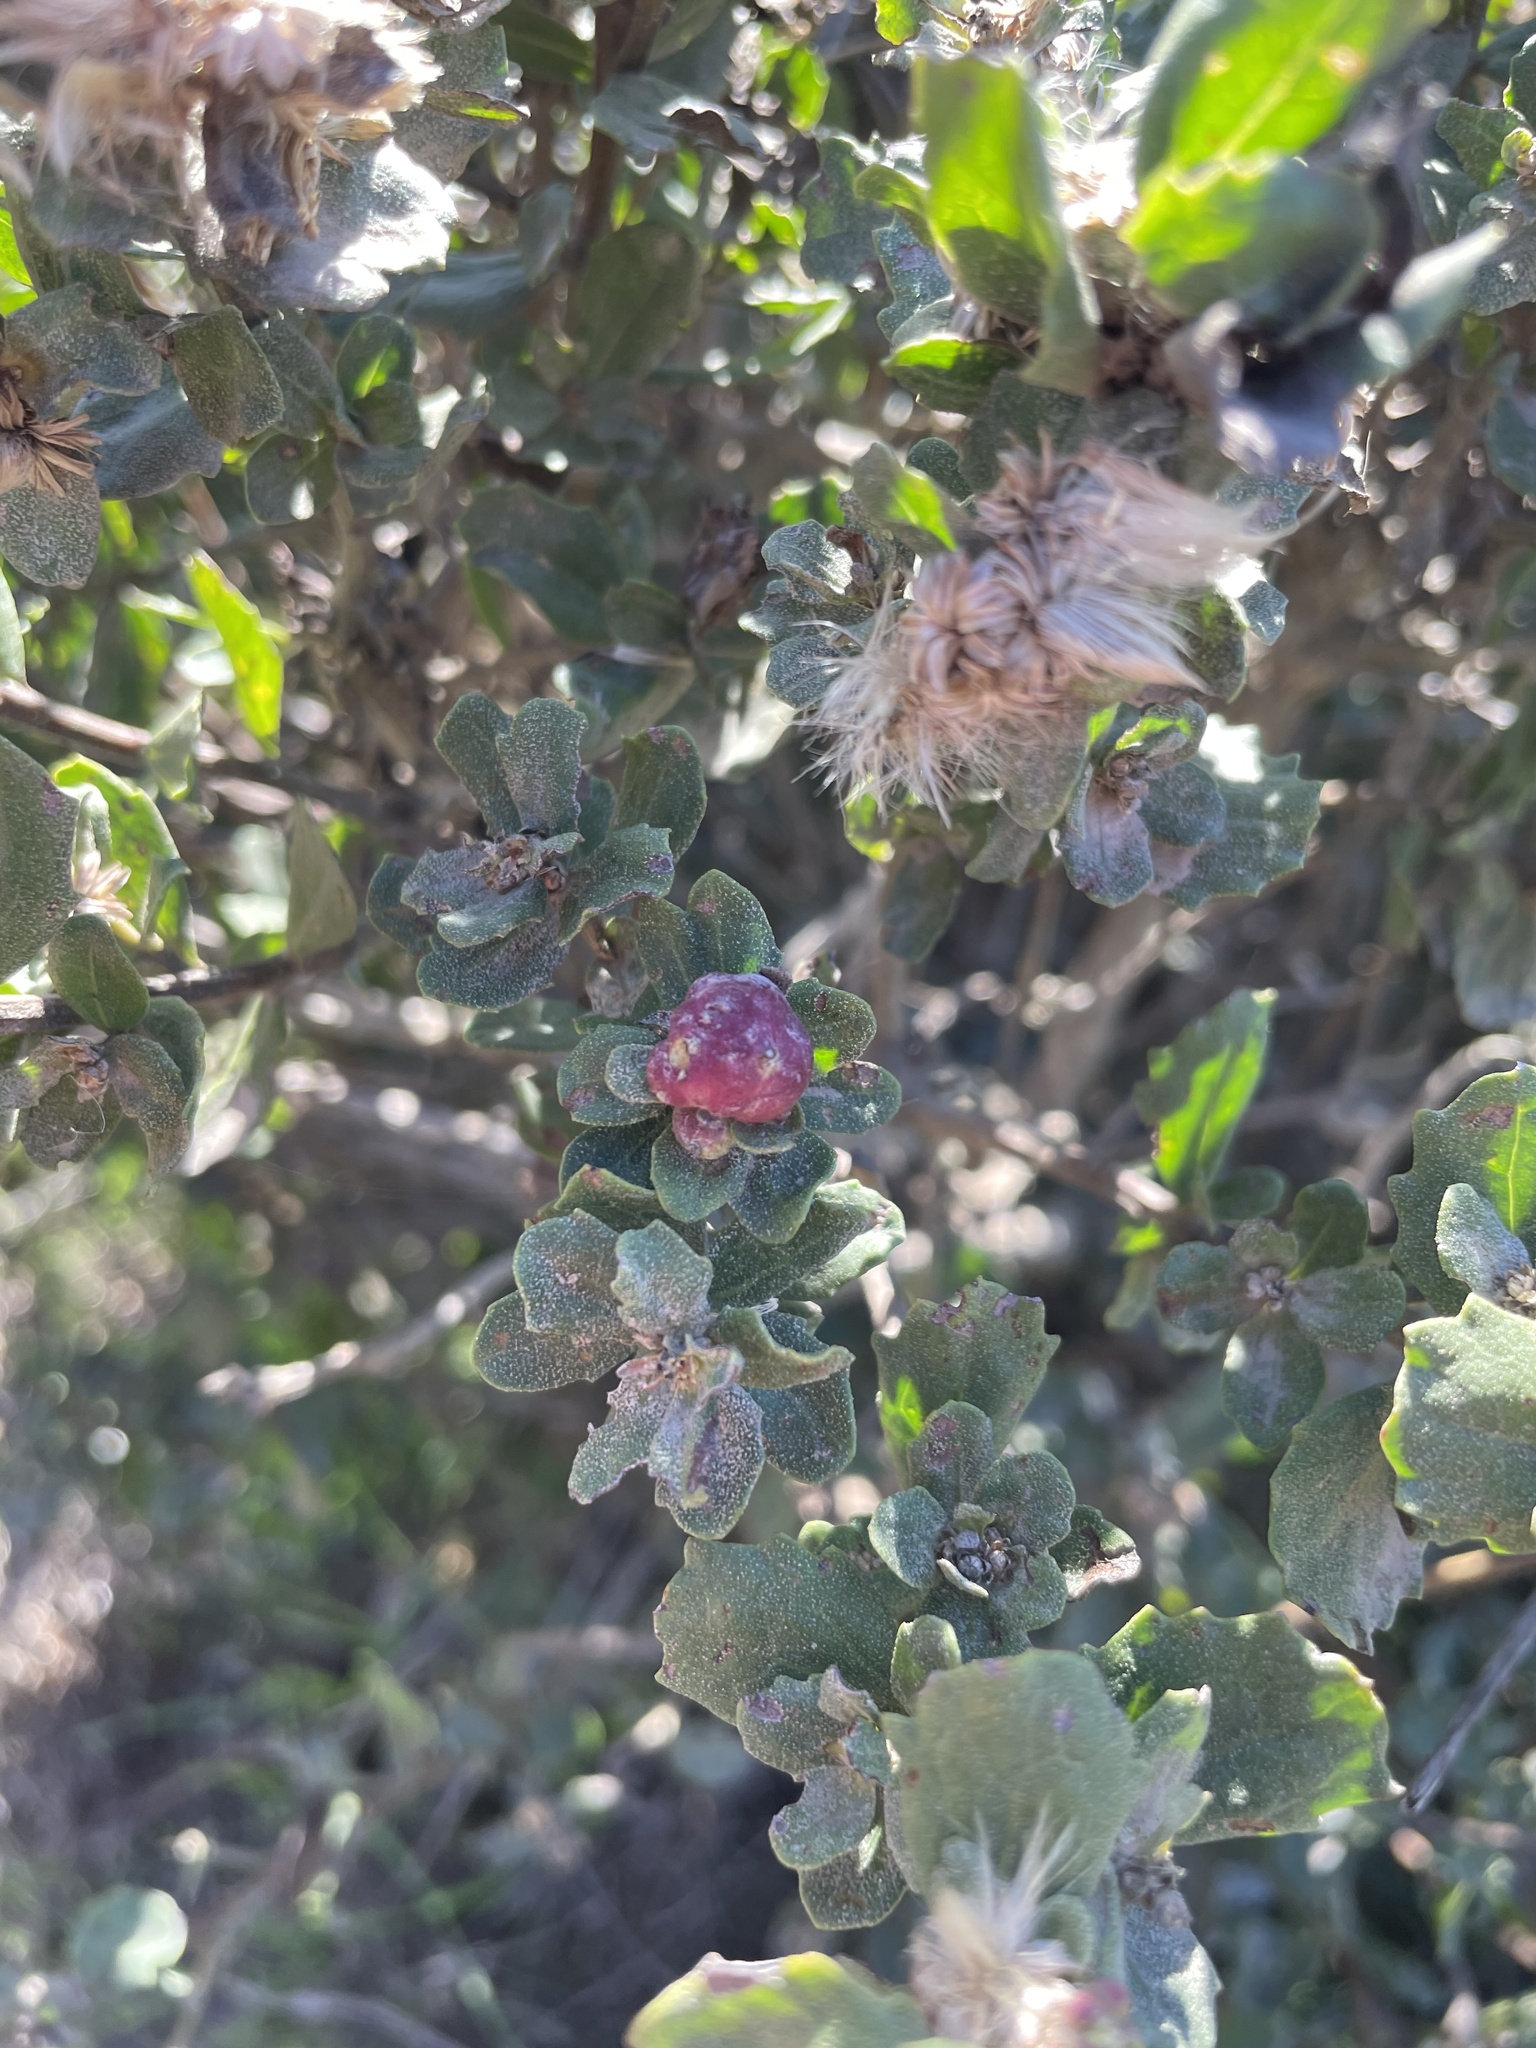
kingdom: Animalia
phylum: Arthropoda
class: Insecta
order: Diptera
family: Cecidomyiidae
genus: Rhopalomyia
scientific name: Rhopalomyia californica
